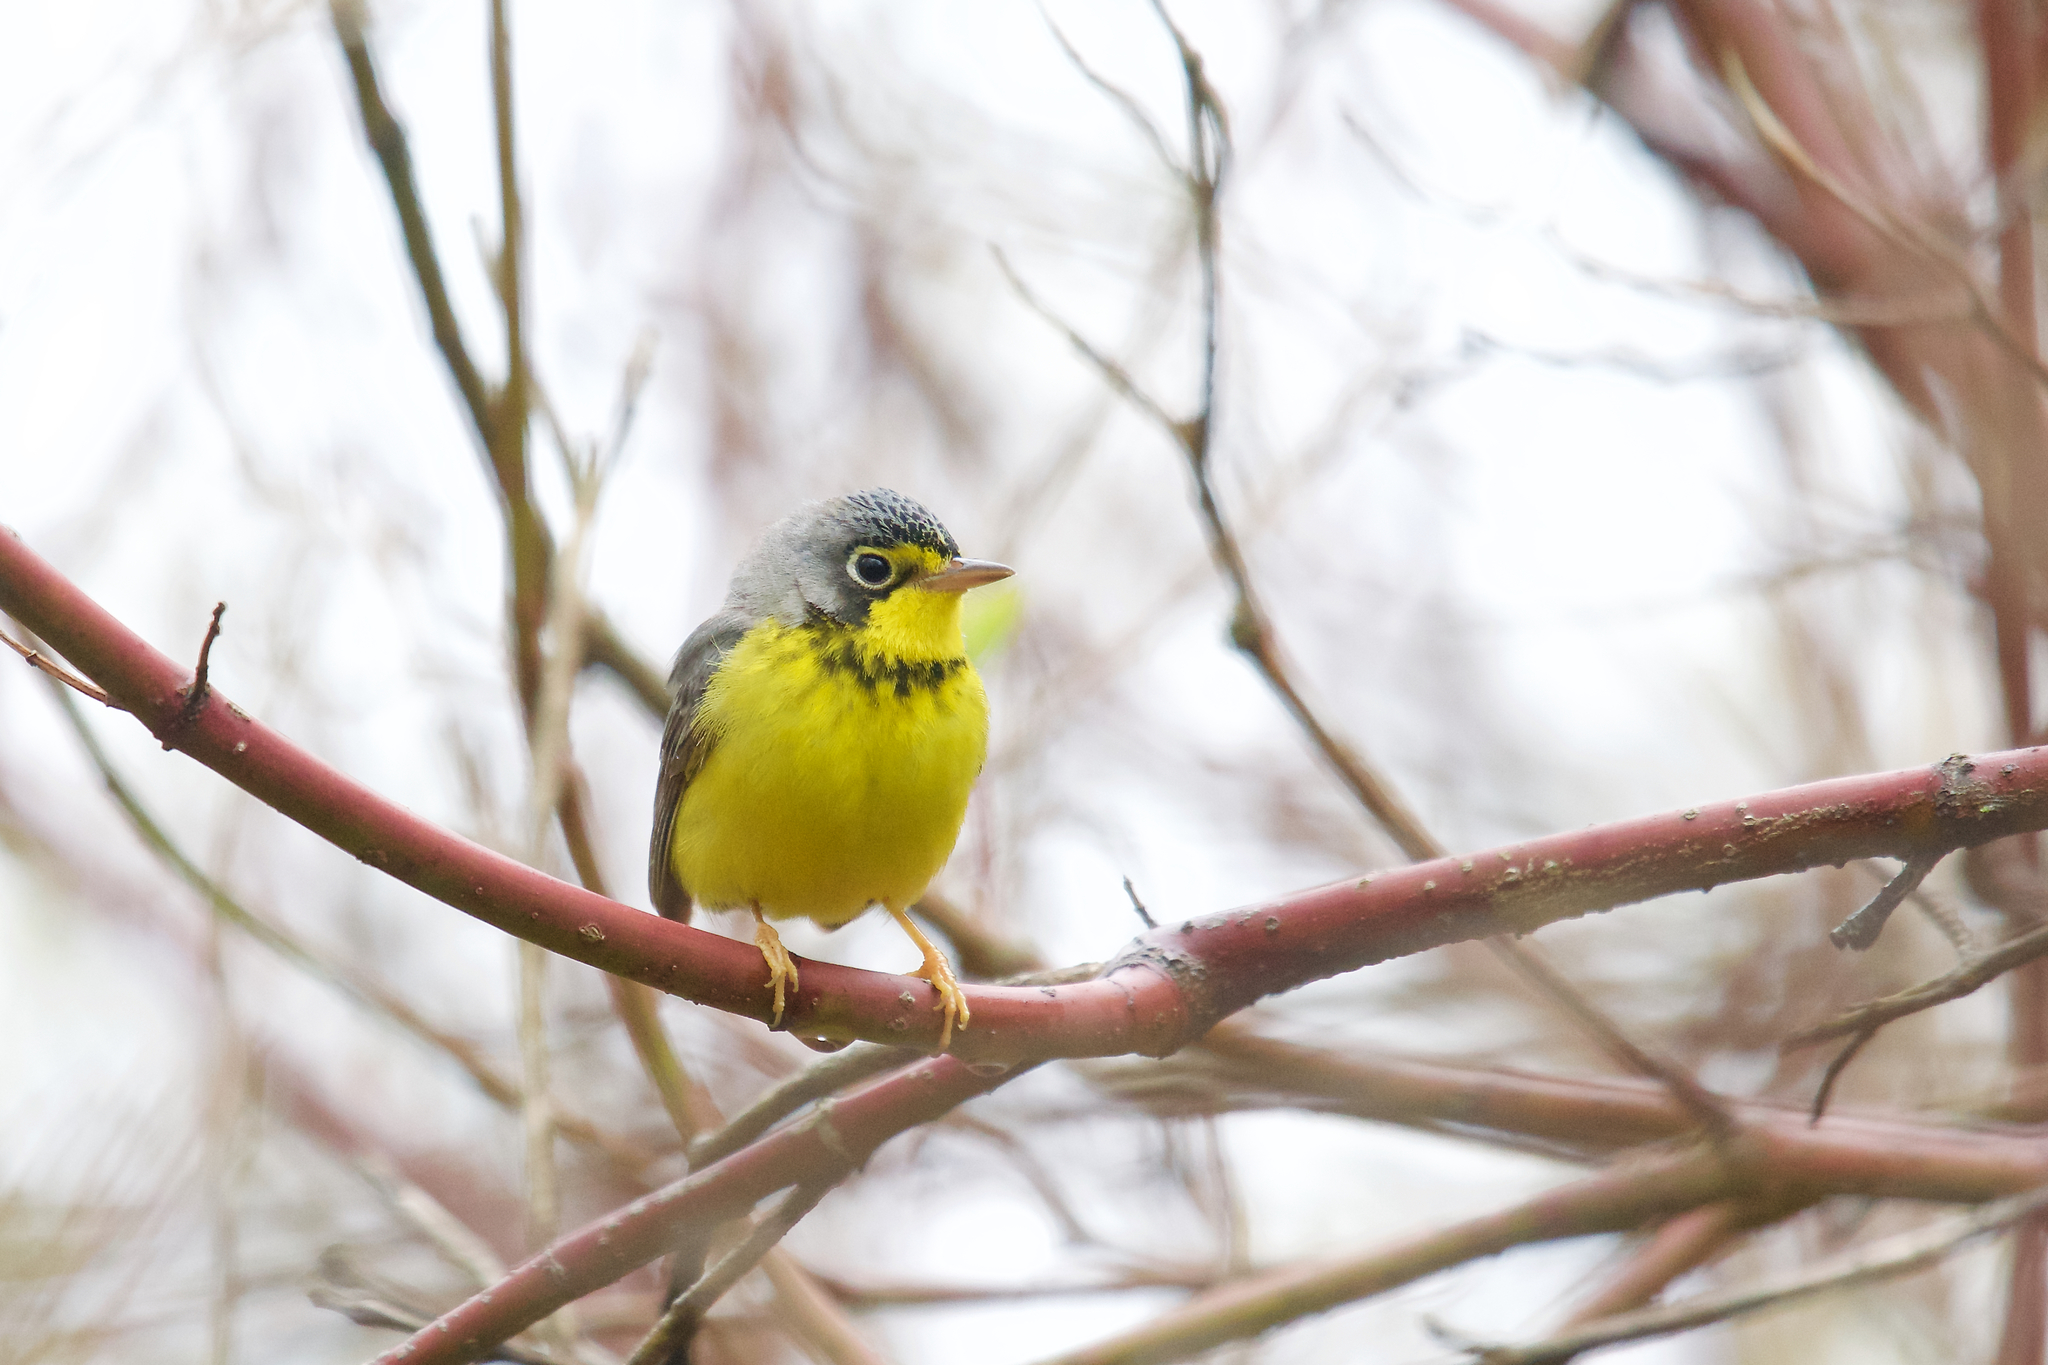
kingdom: Animalia
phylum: Chordata
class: Aves
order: Passeriformes
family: Parulidae
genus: Cardellina
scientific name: Cardellina canadensis
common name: Canada warbler
